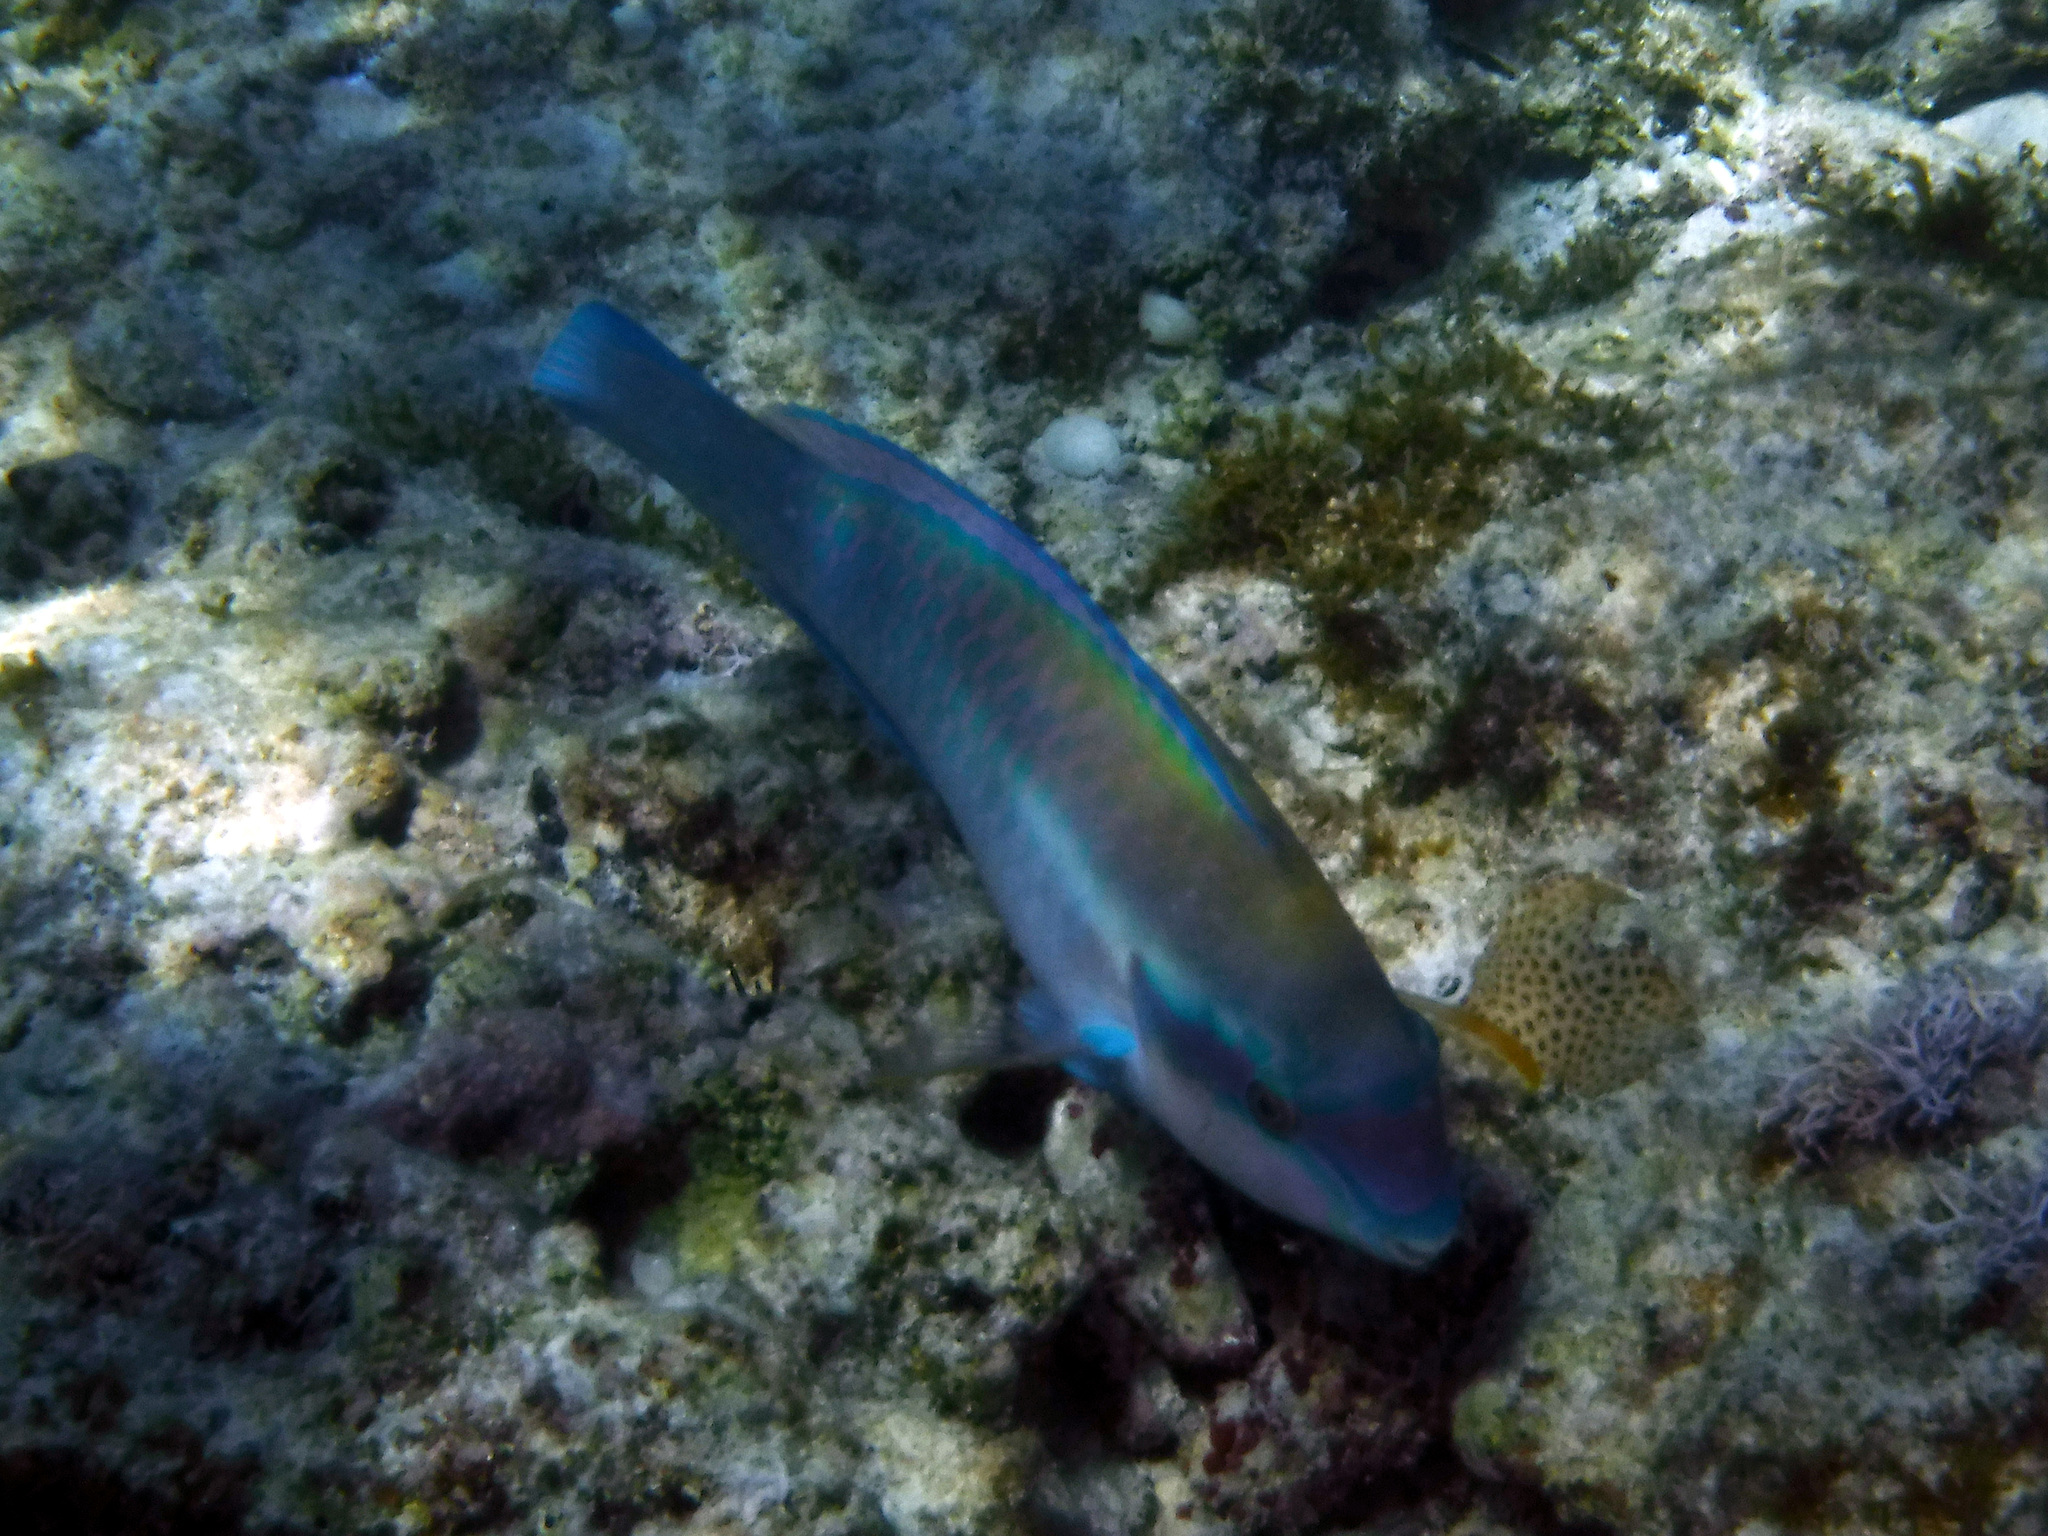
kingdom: Animalia
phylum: Chordata
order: Perciformes
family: Scaridae
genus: Scarus
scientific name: Scarus iseri
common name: Striped parrotfish
